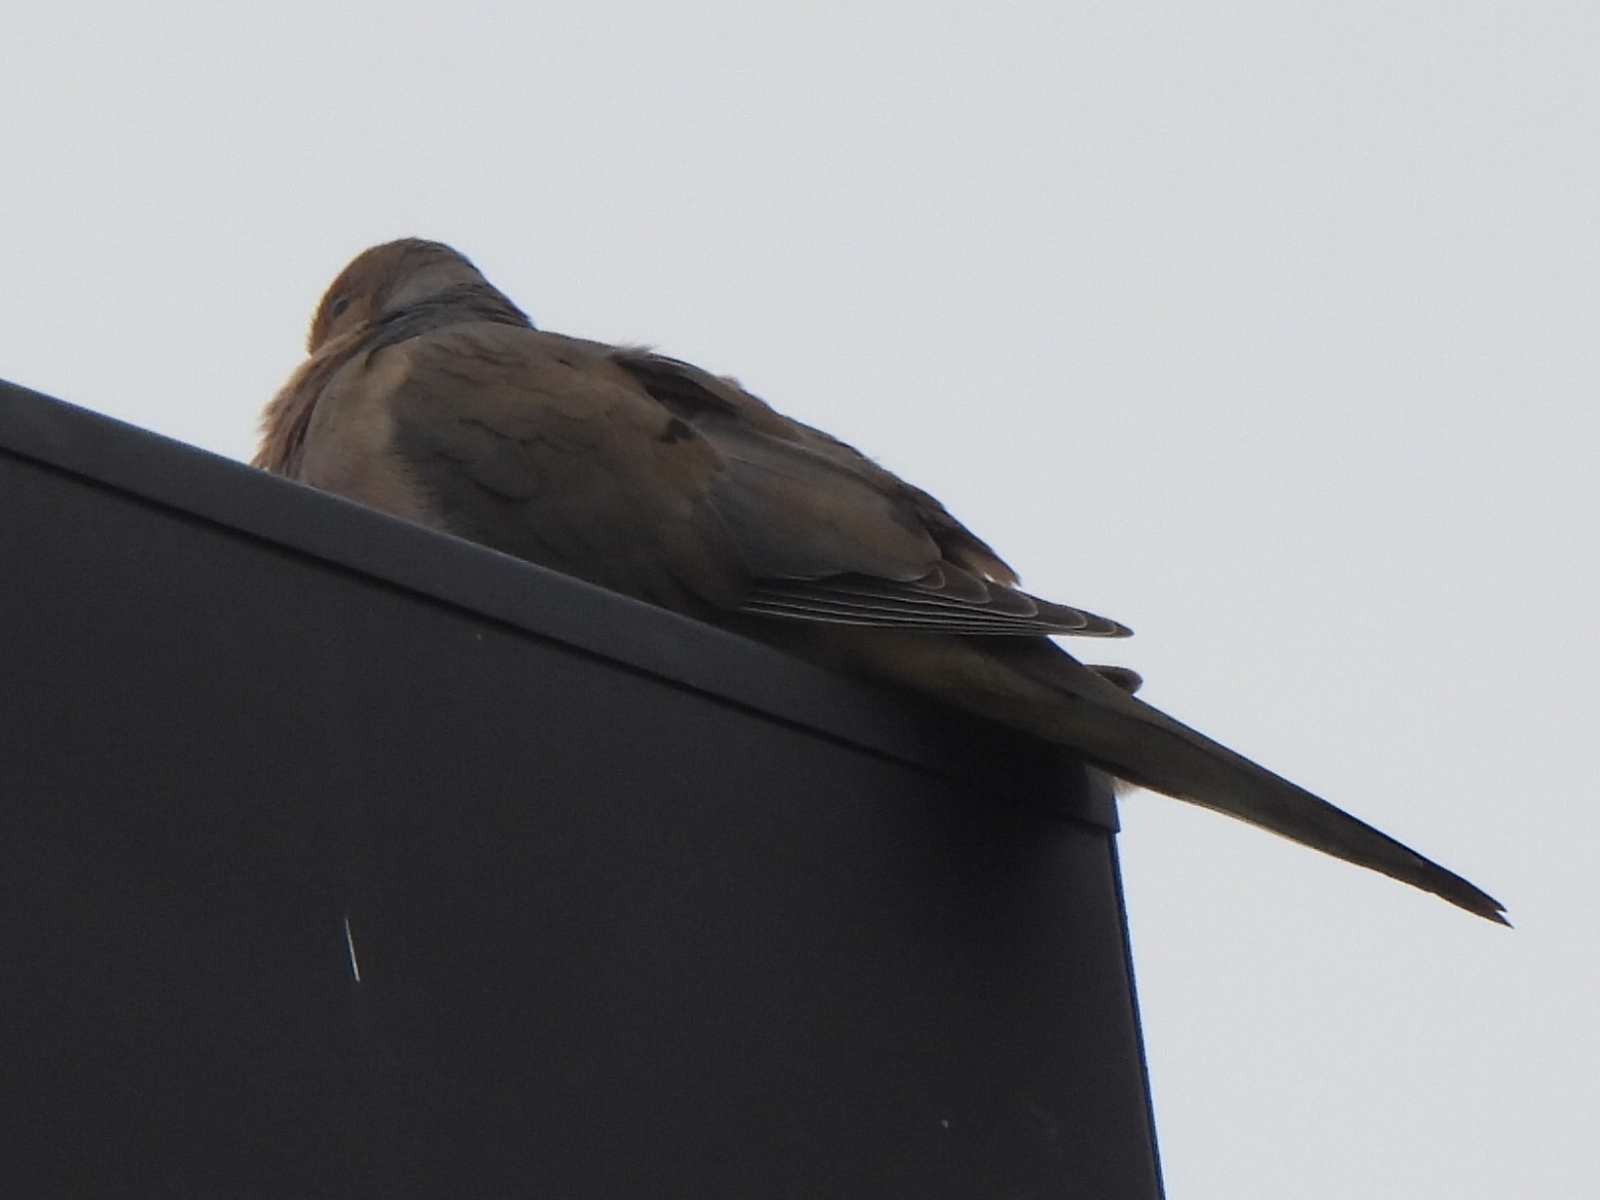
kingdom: Animalia
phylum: Chordata
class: Aves
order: Columbiformes
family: Columbidae
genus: Zenaida
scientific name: Zenaida macroura
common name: Mourning dove
